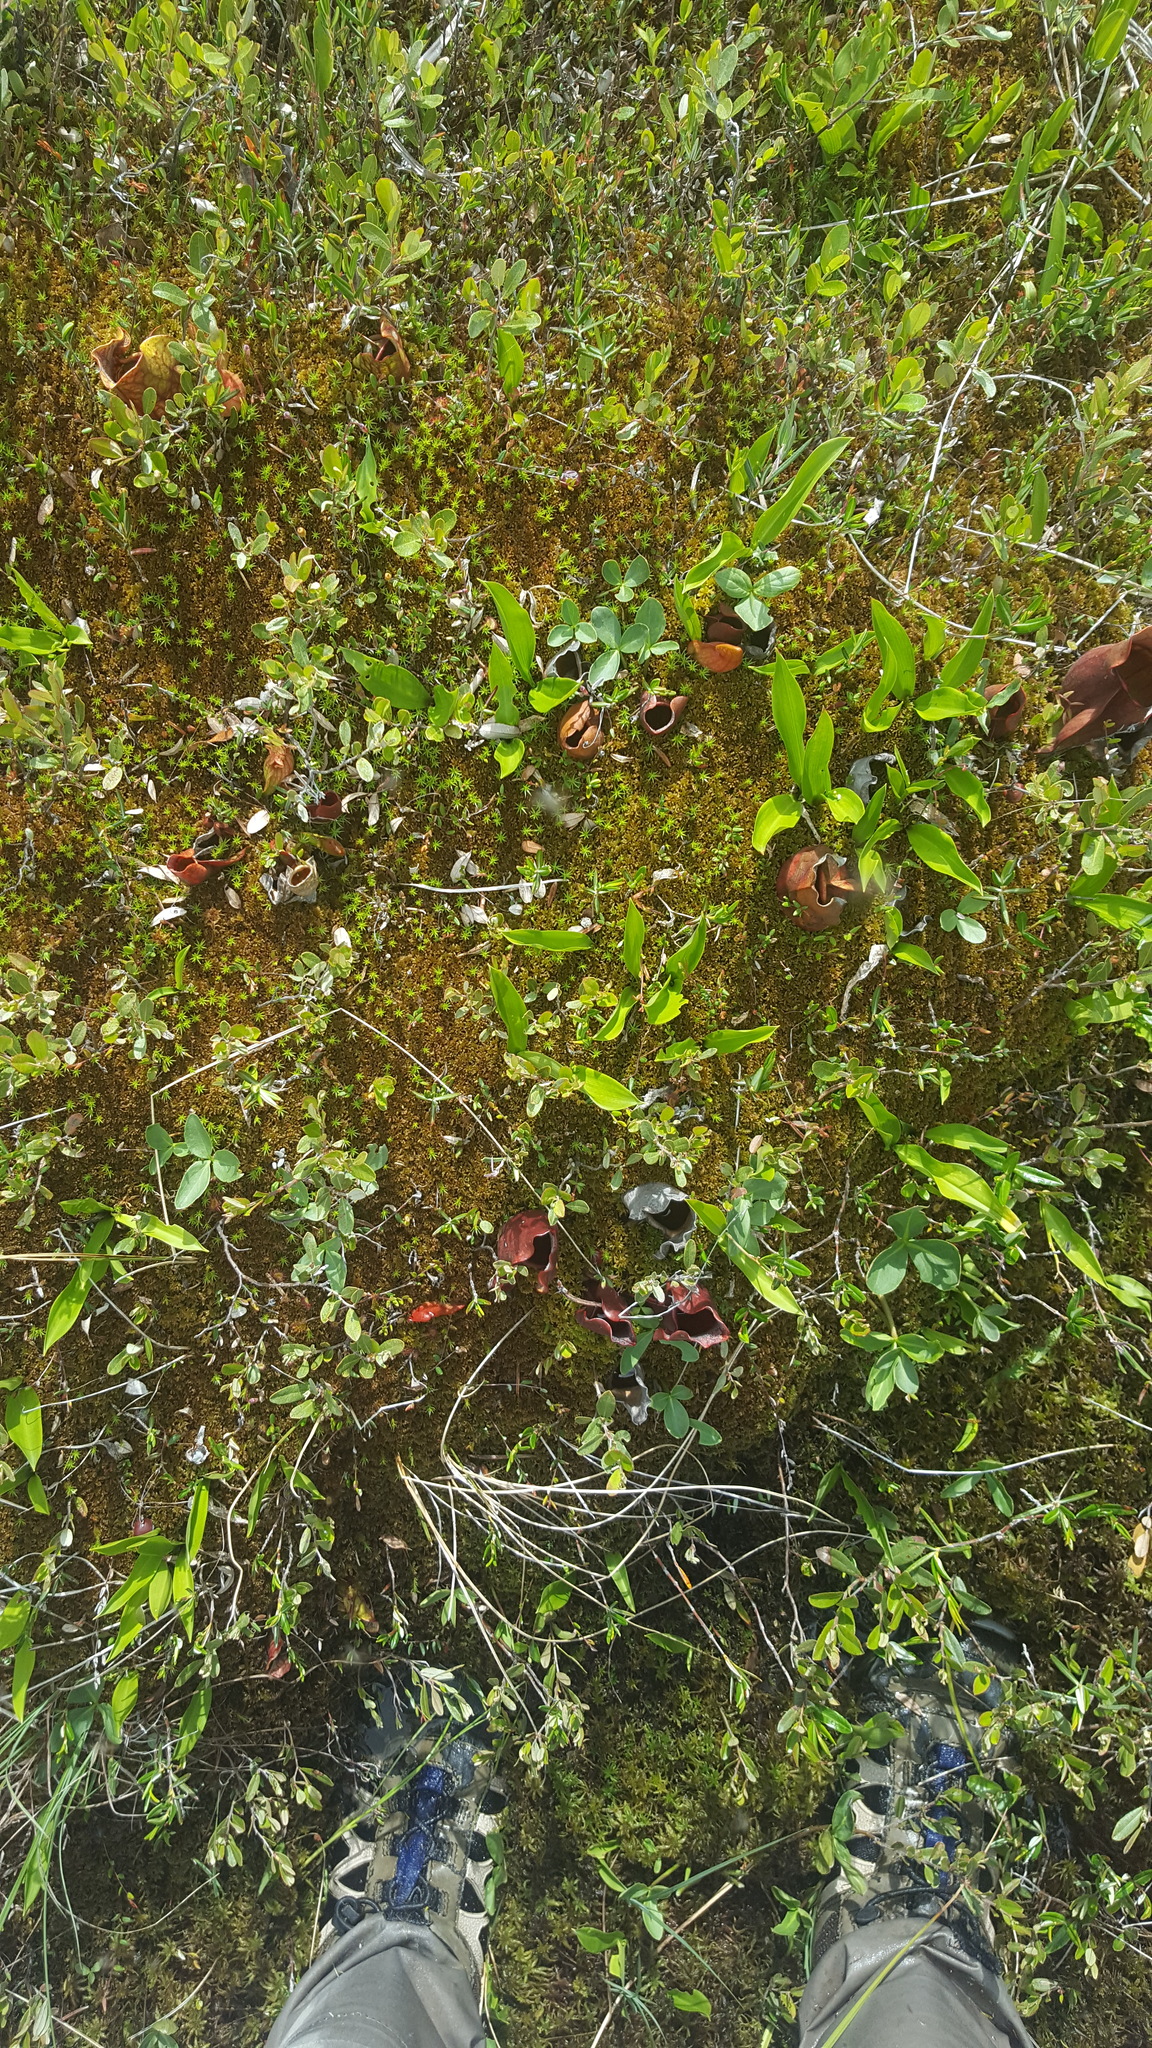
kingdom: Plantae
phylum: Tracheophyta
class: Magnoliopsida
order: Ericales
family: Sarraceniaceae
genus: Sarracenia
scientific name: Sarracenia purpurea
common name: Pitcherplant
